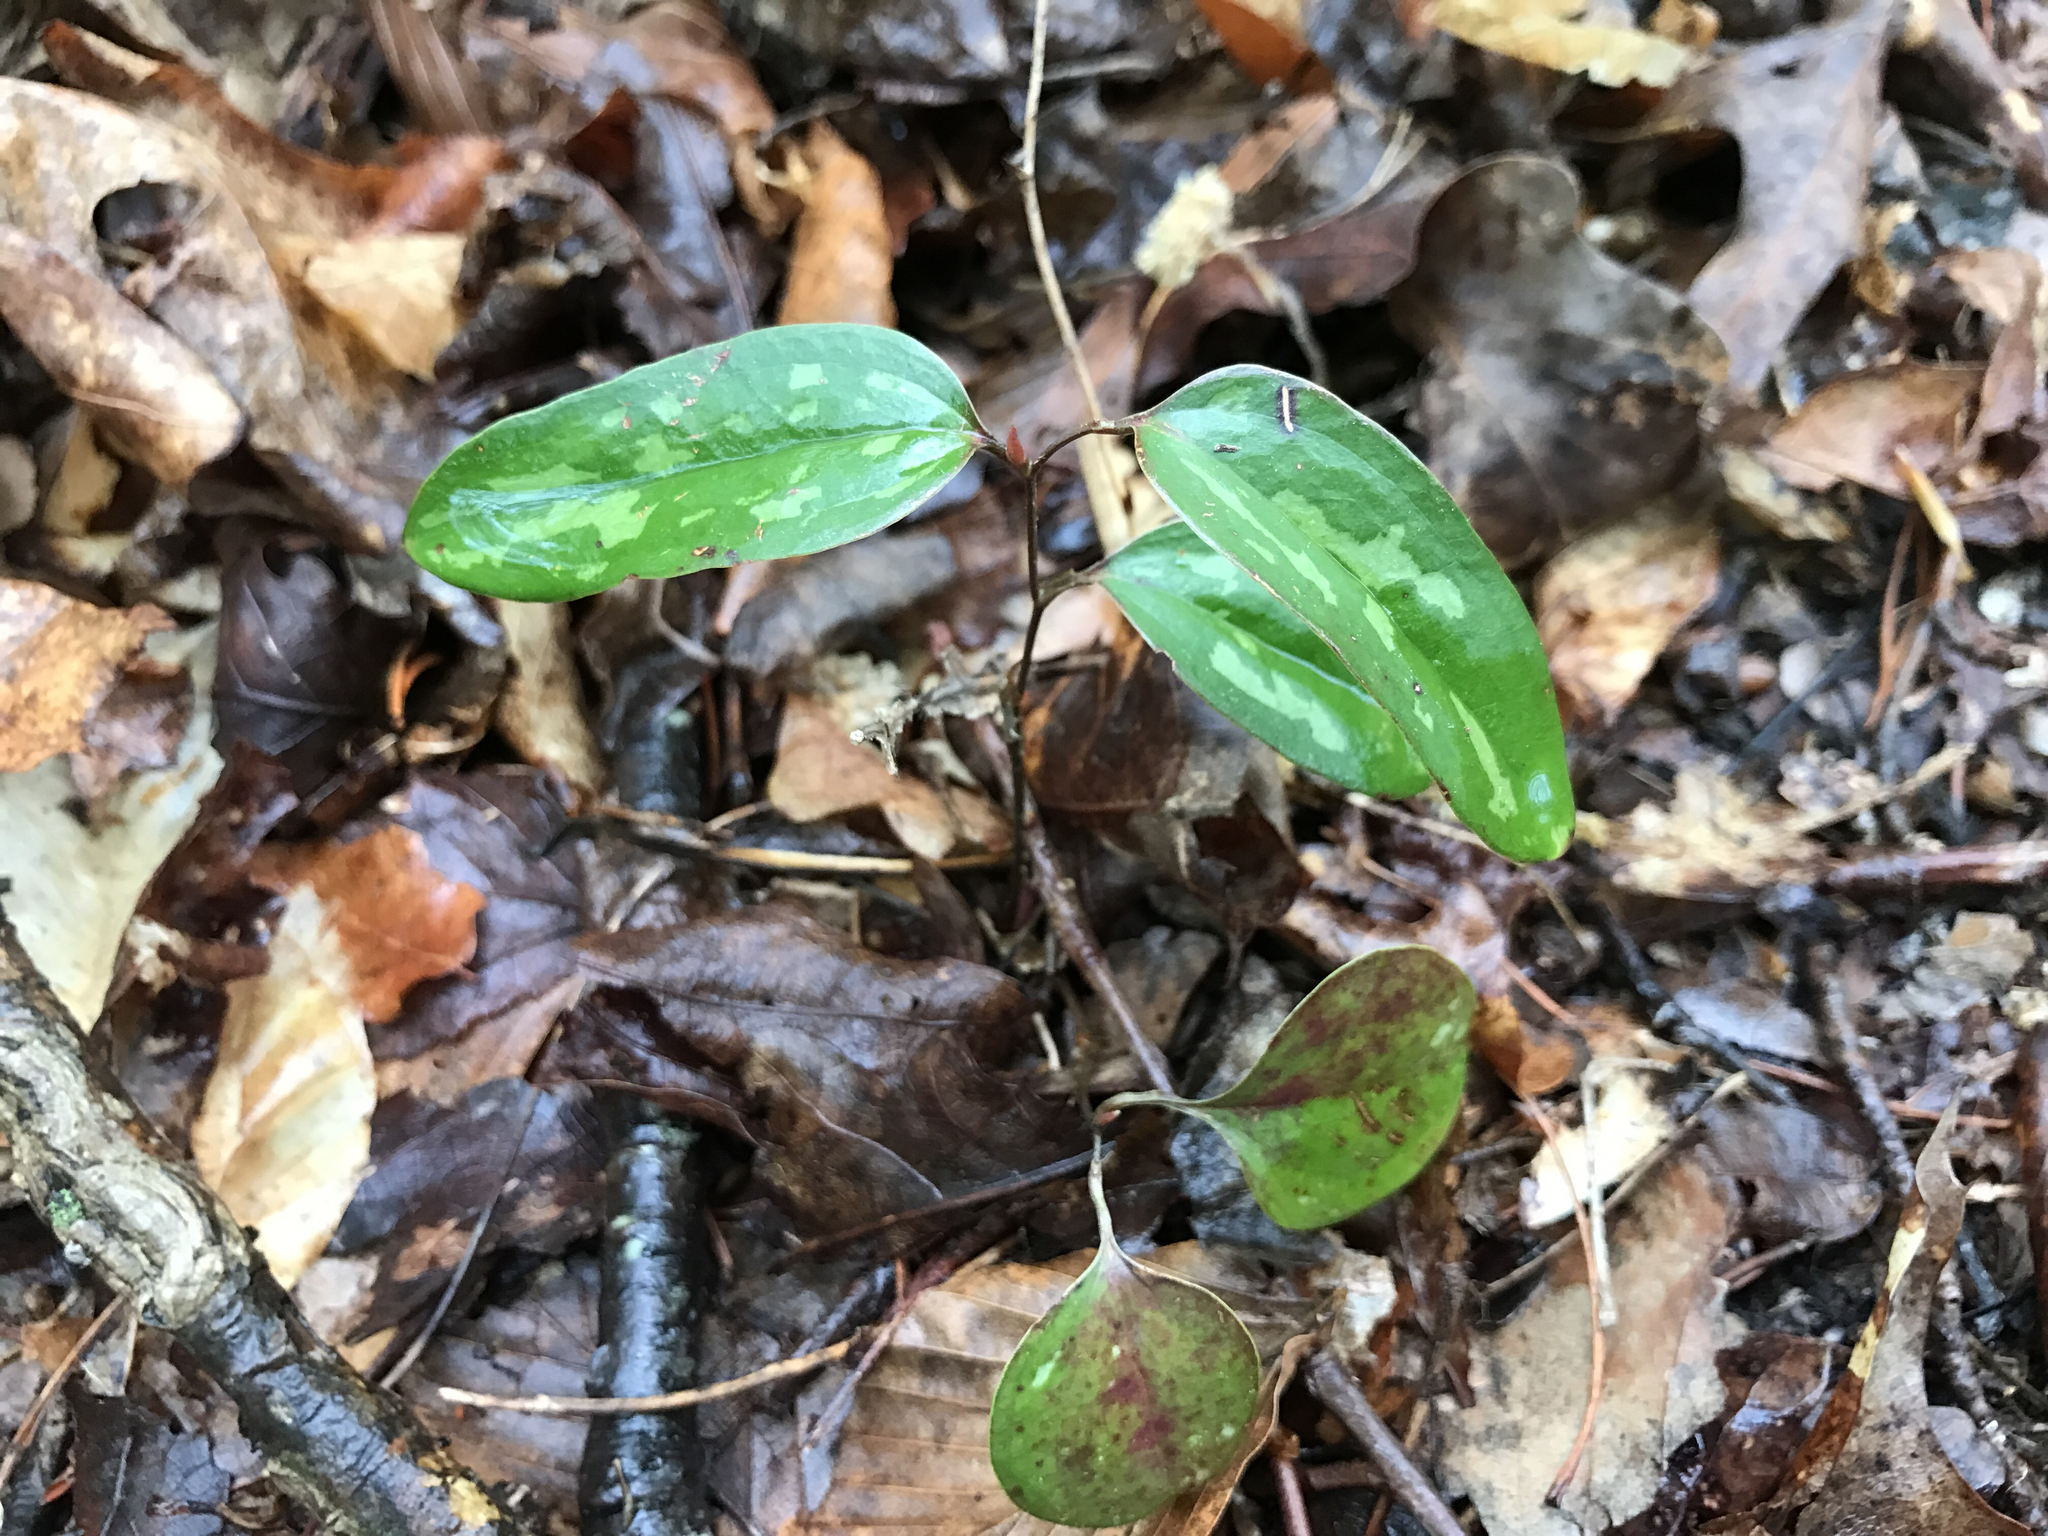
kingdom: Plantae
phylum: Tracheophyta
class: Liliopsida
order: Liliales
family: Smilacaceae
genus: Smilax
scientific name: Smilax glauca
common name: Cat greenbrier
